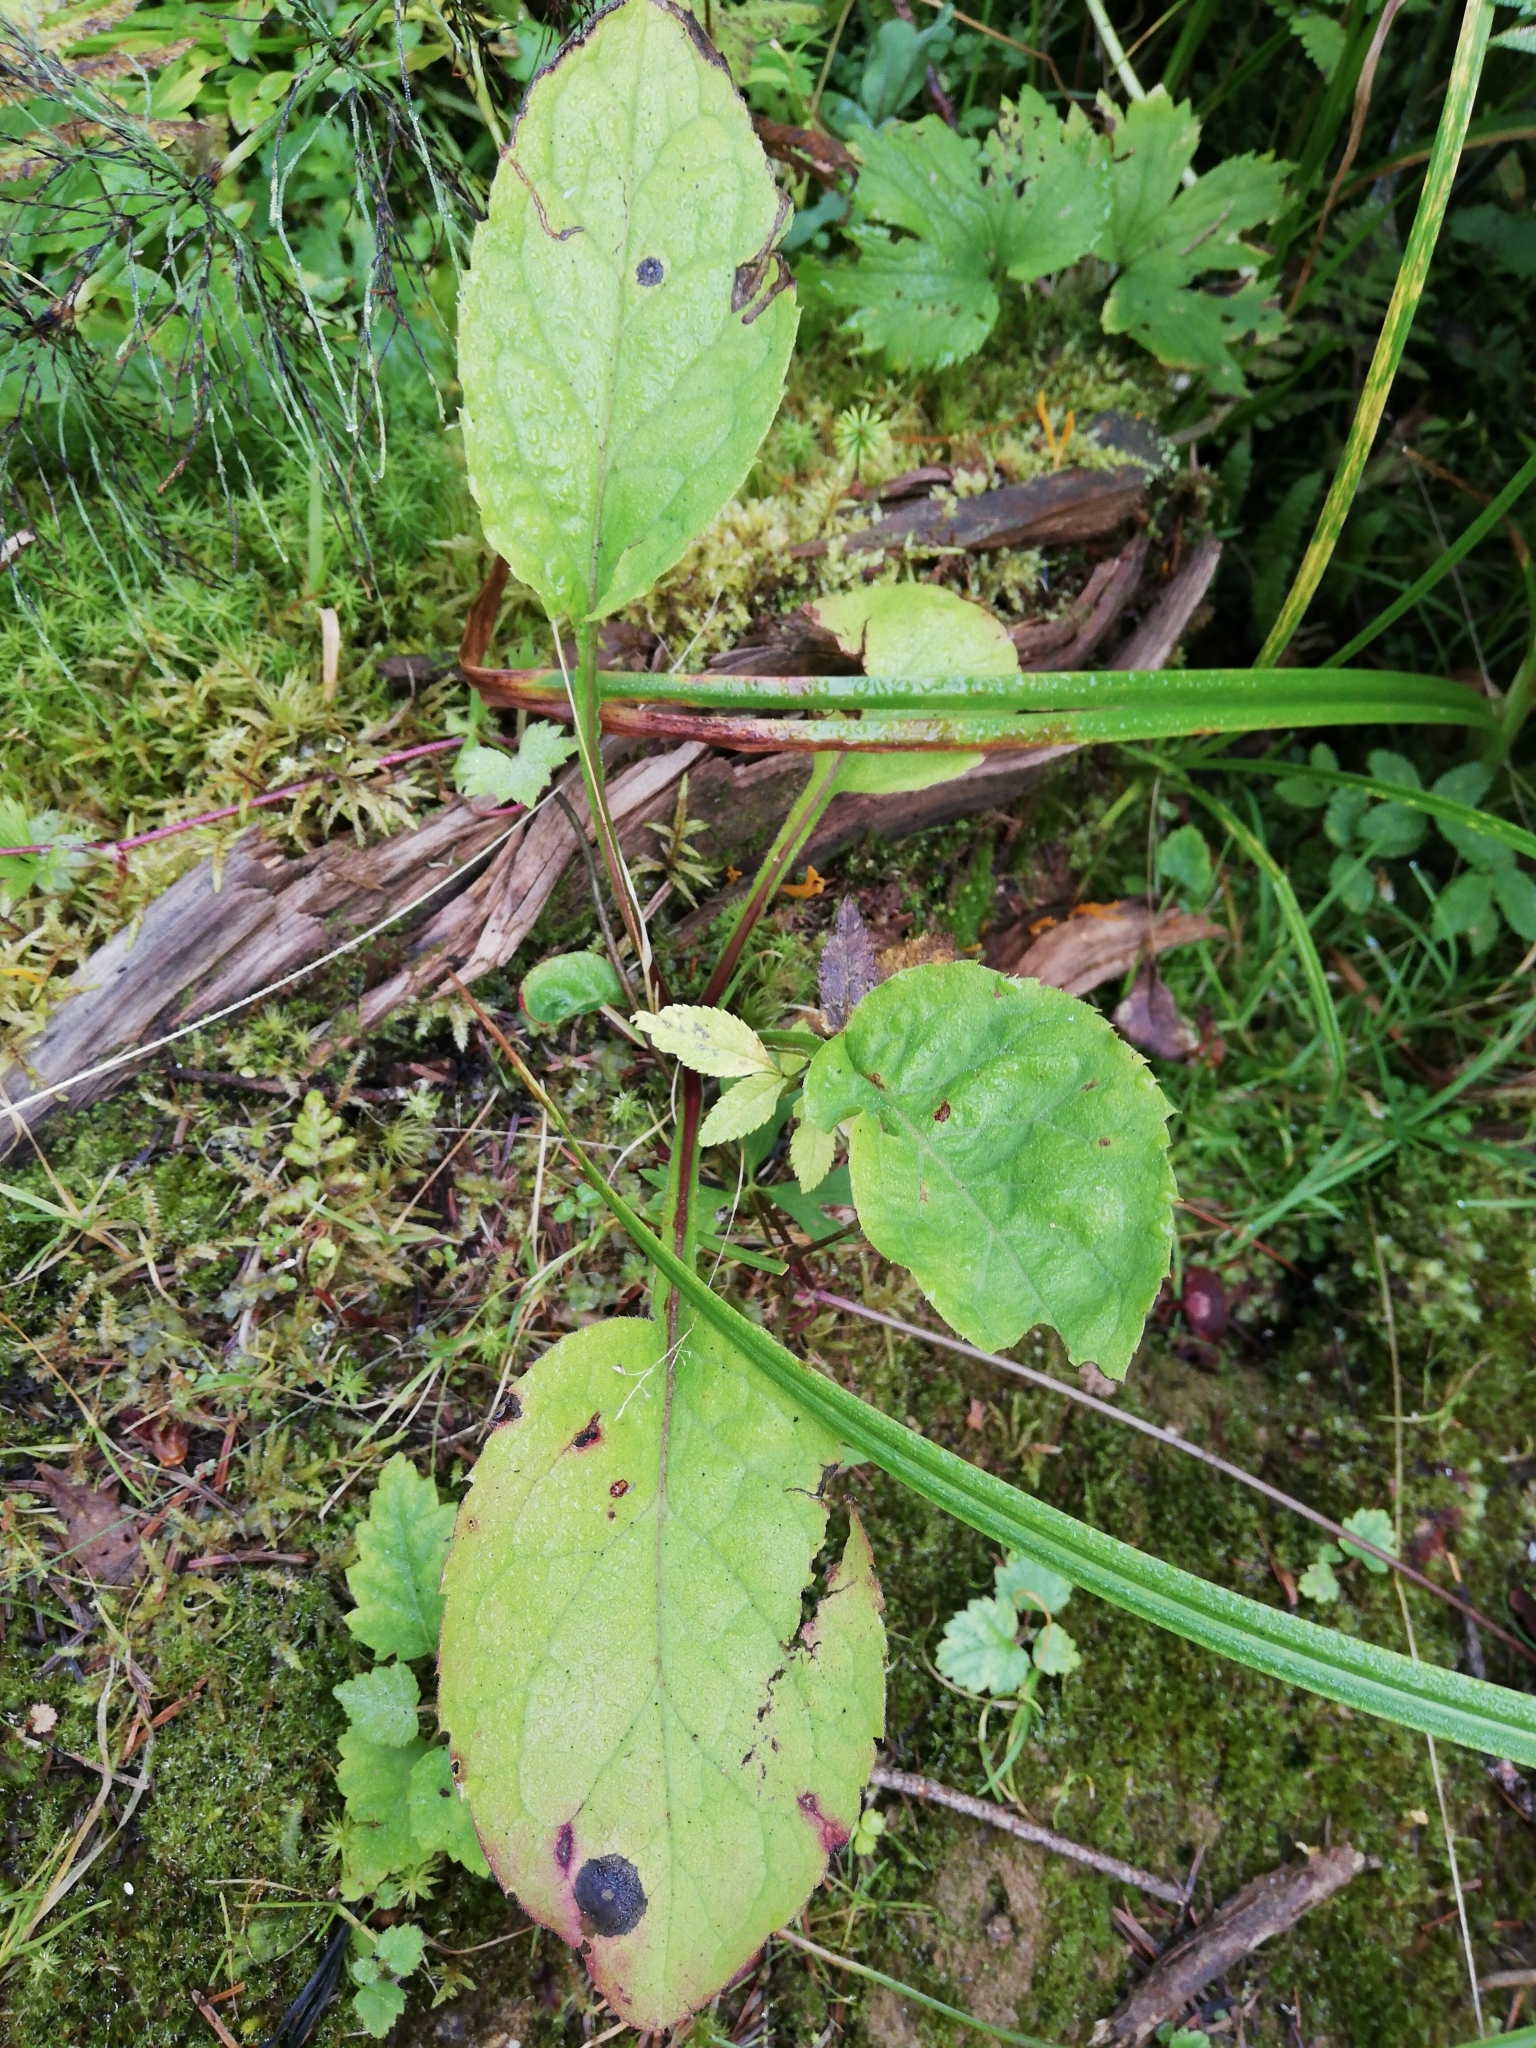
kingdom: Plantae
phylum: Tracheophyta
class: Magnoliopsida
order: Asterales
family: Asteraceae
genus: Solidago
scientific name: Solidago virgaurea
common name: Goldenrod
